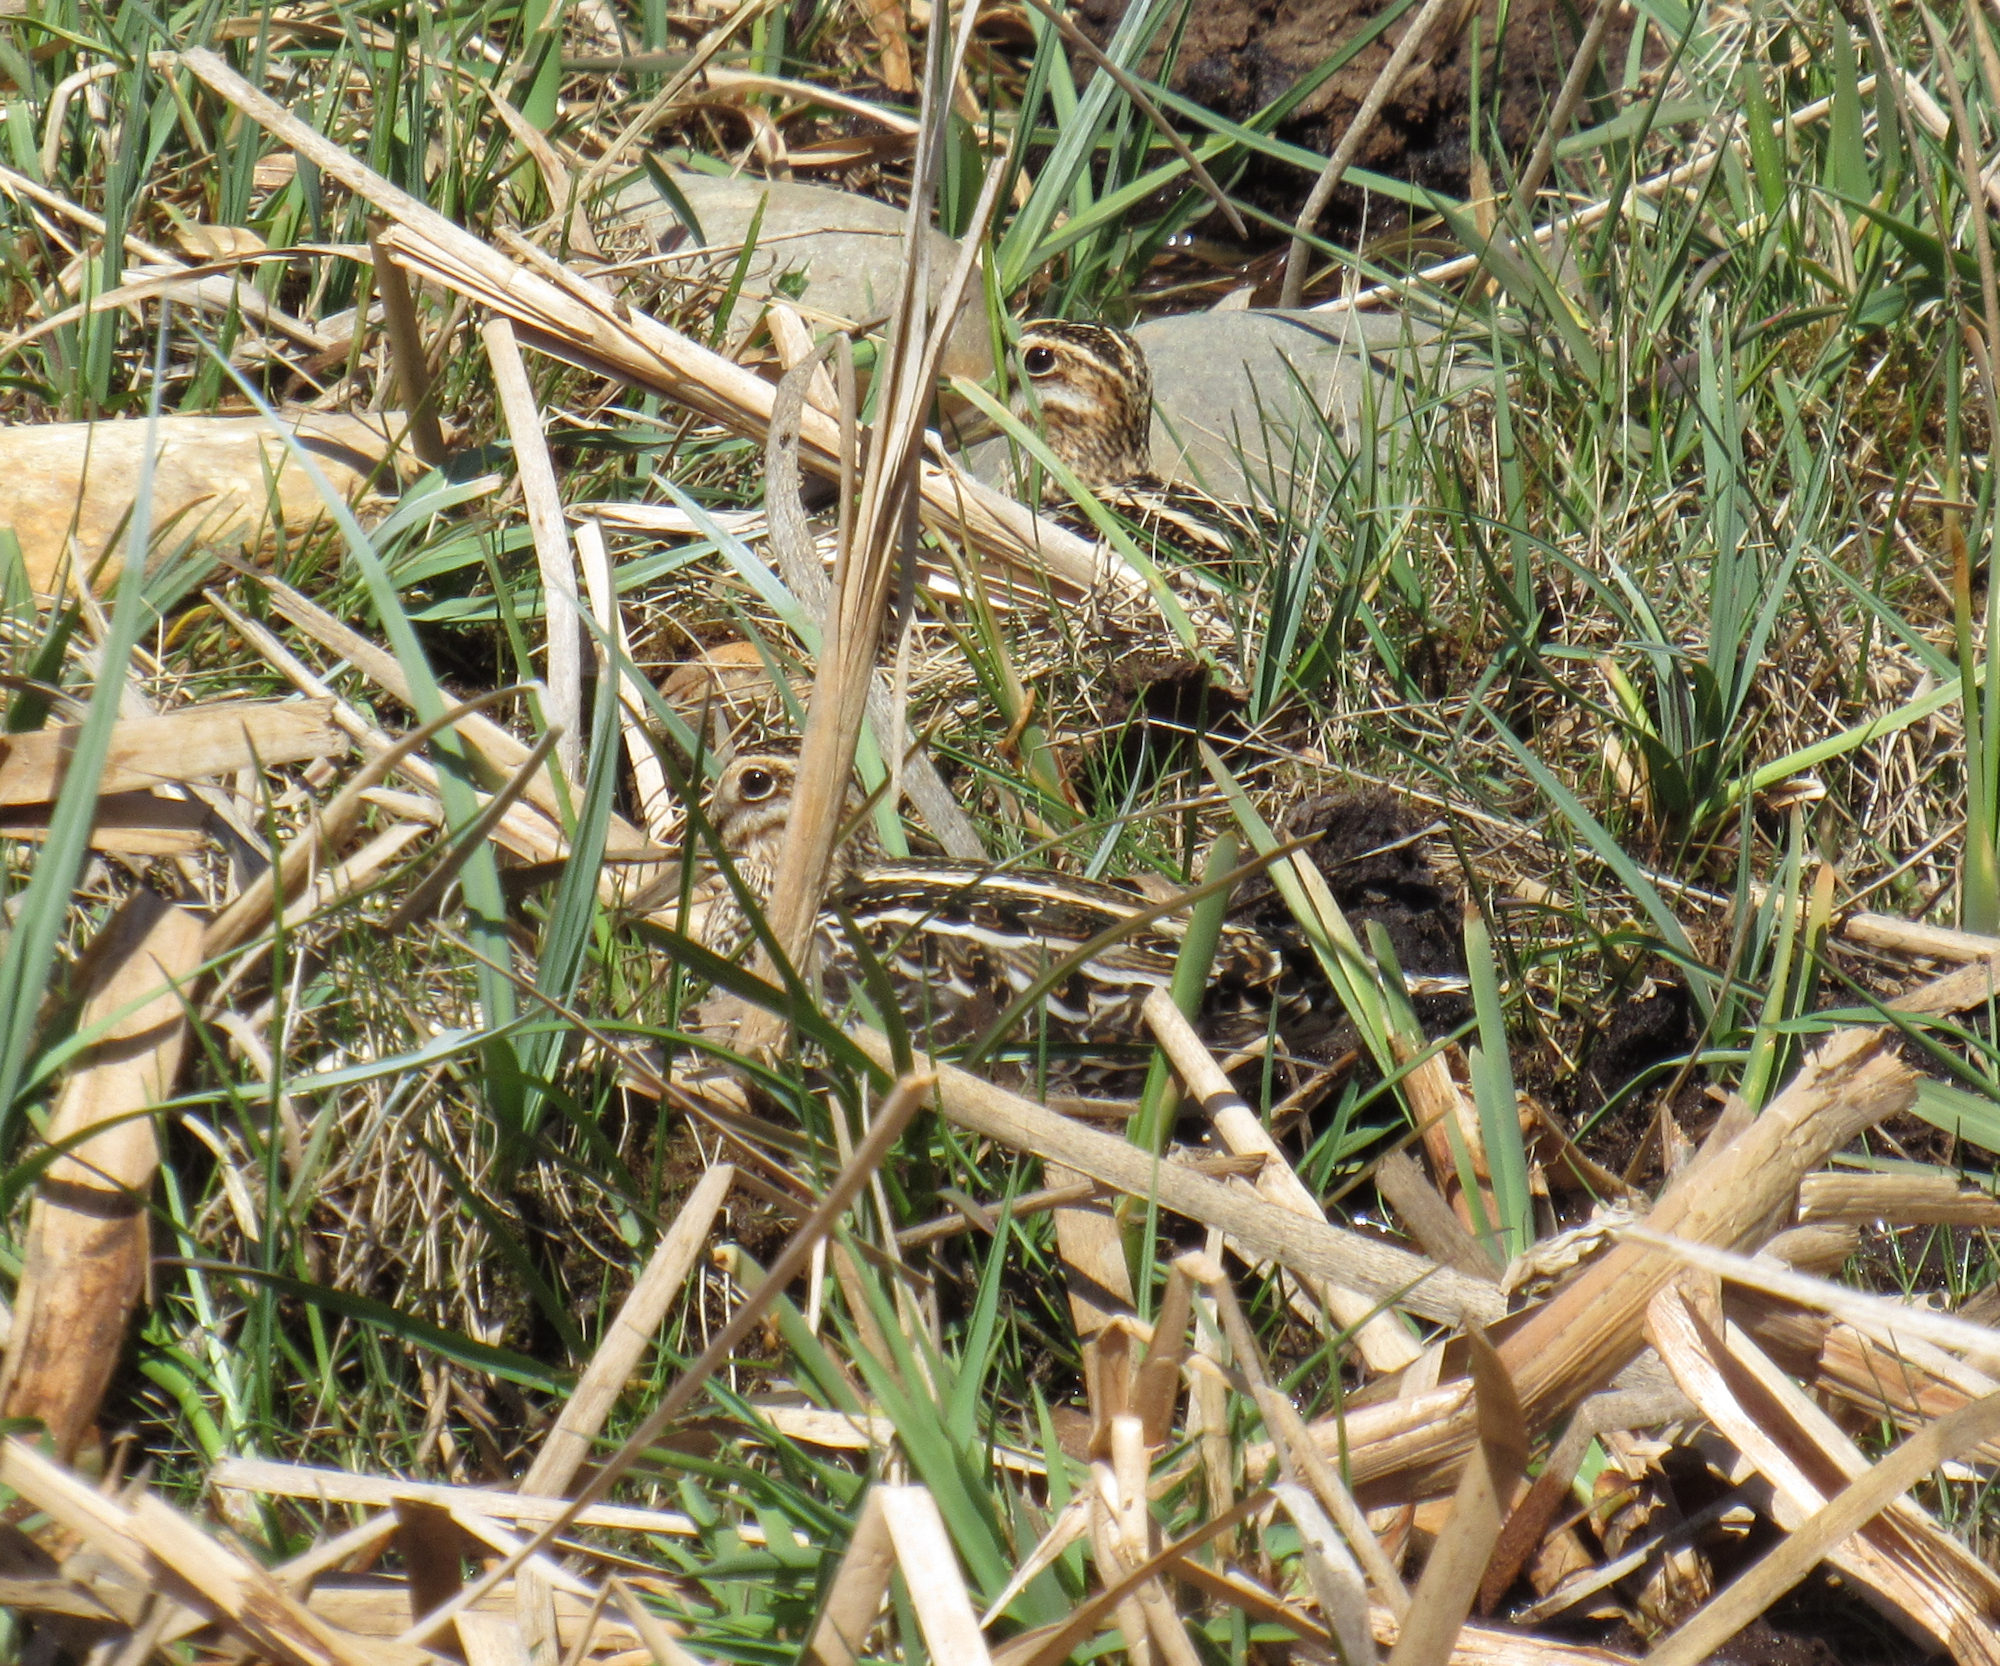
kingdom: Animalia
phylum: Chordata
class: Aves
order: Charadriiformes
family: Scolopacidae
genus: Gallinago
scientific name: Gallinago delicata
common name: Wilson's snipe
